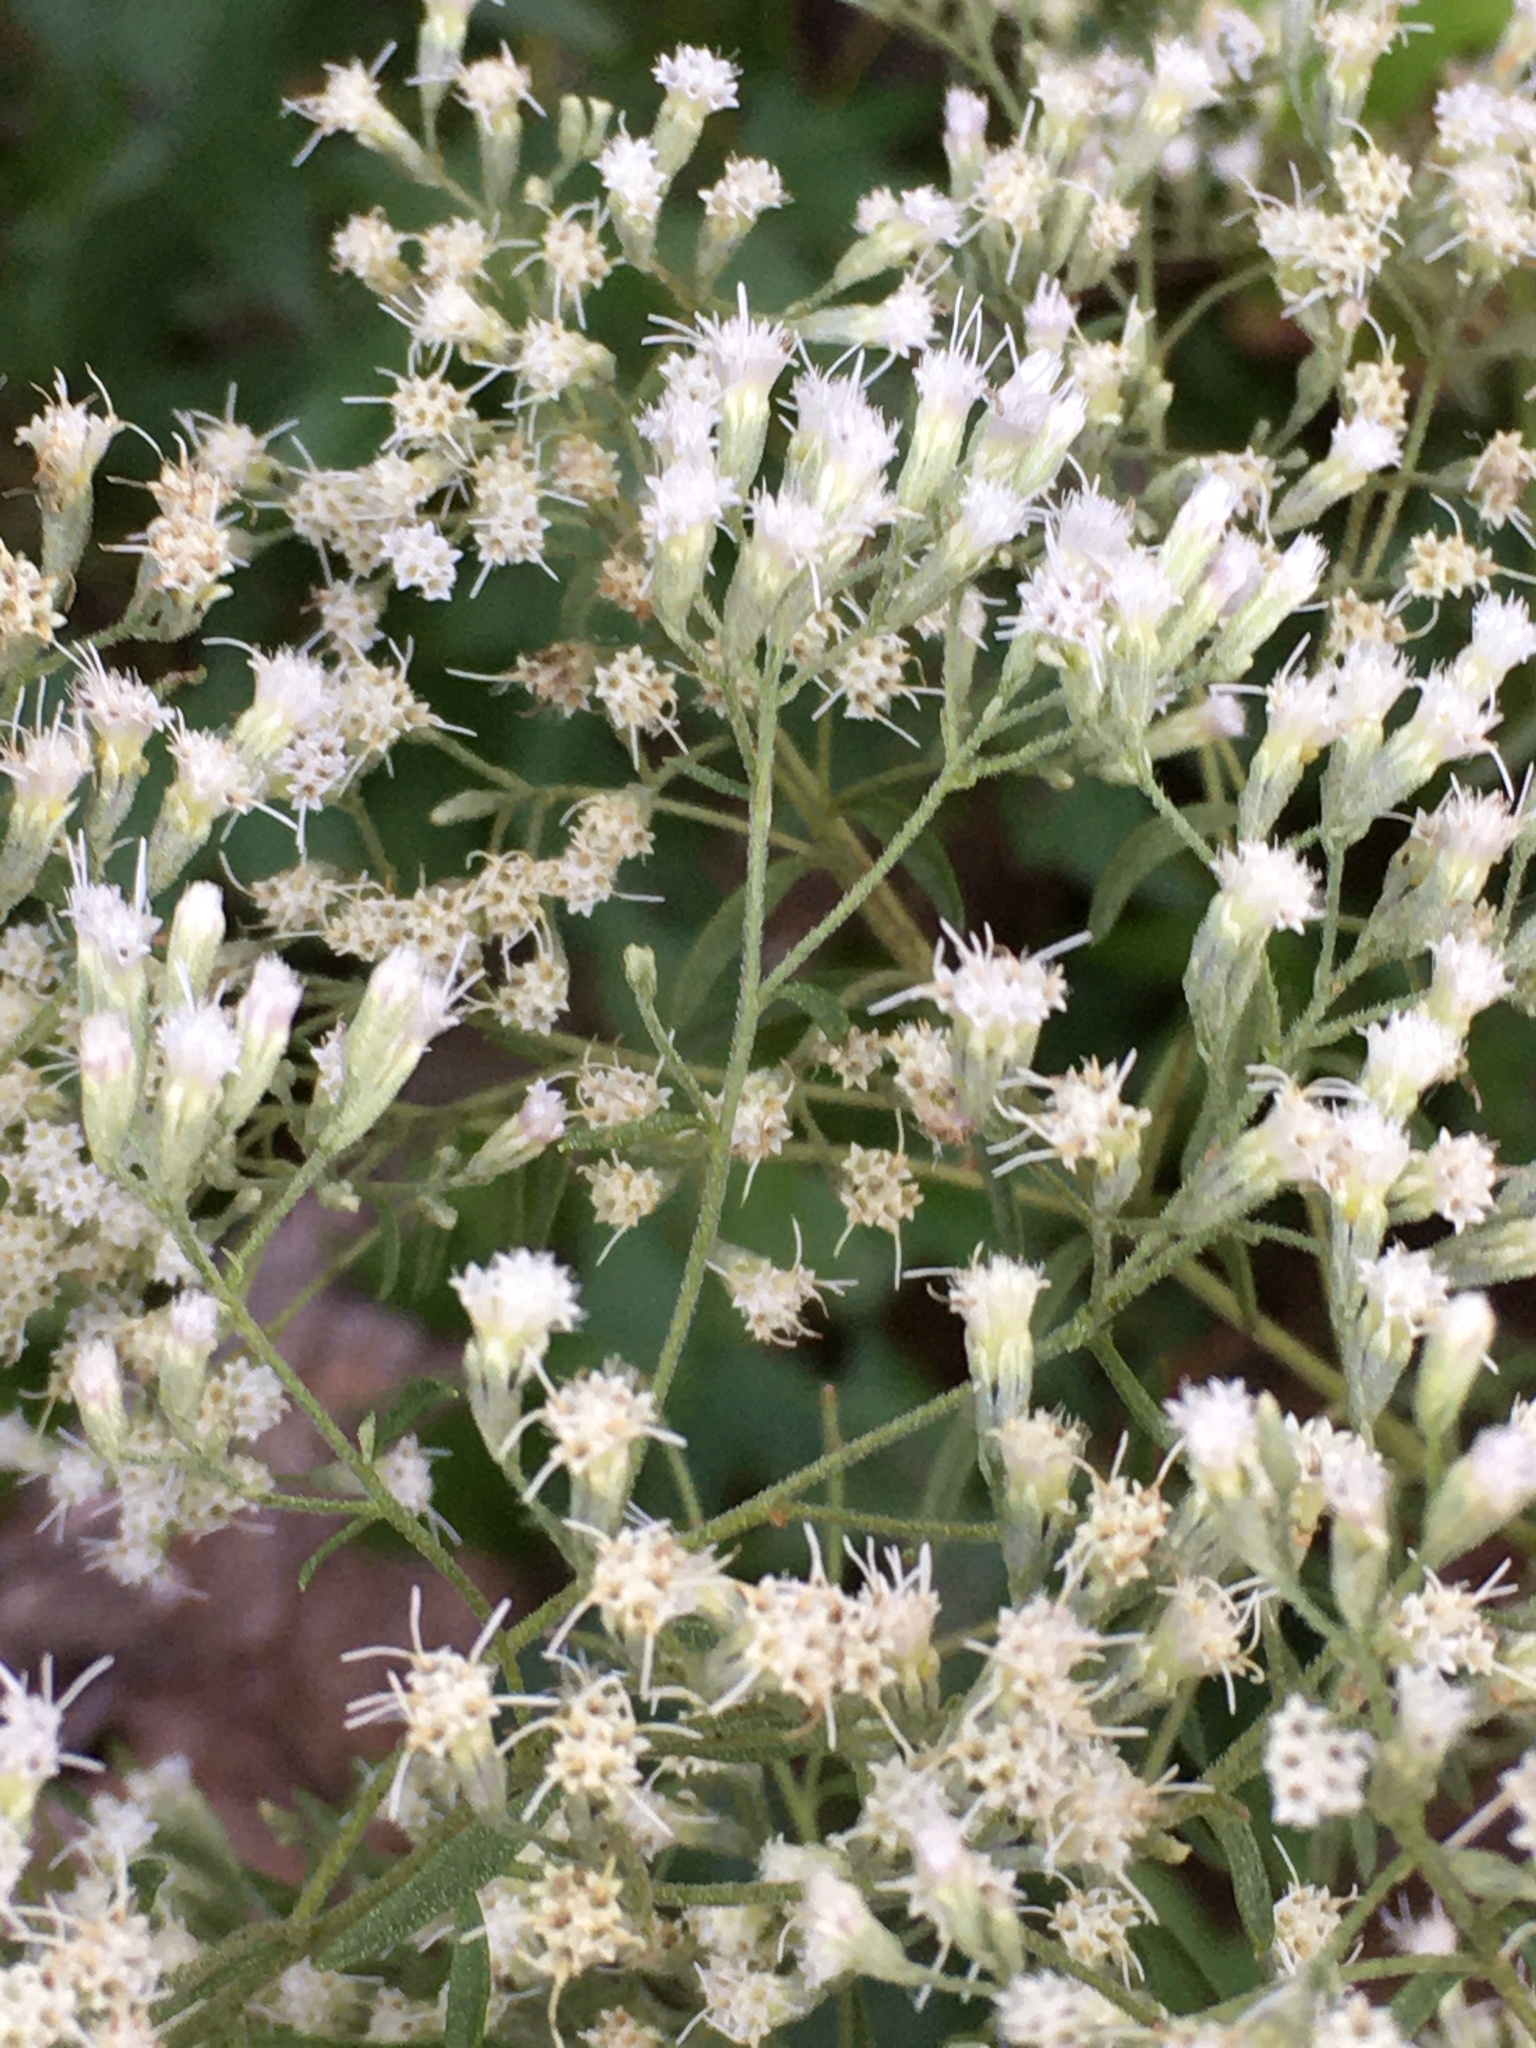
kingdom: Plantae
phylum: Tracheophyta
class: Magnoliopsida
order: Asterales
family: Asteraceae
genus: Eupatorium
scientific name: Eupatorium hyssopifolium
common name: Hyssop-leaf thoroughwort
